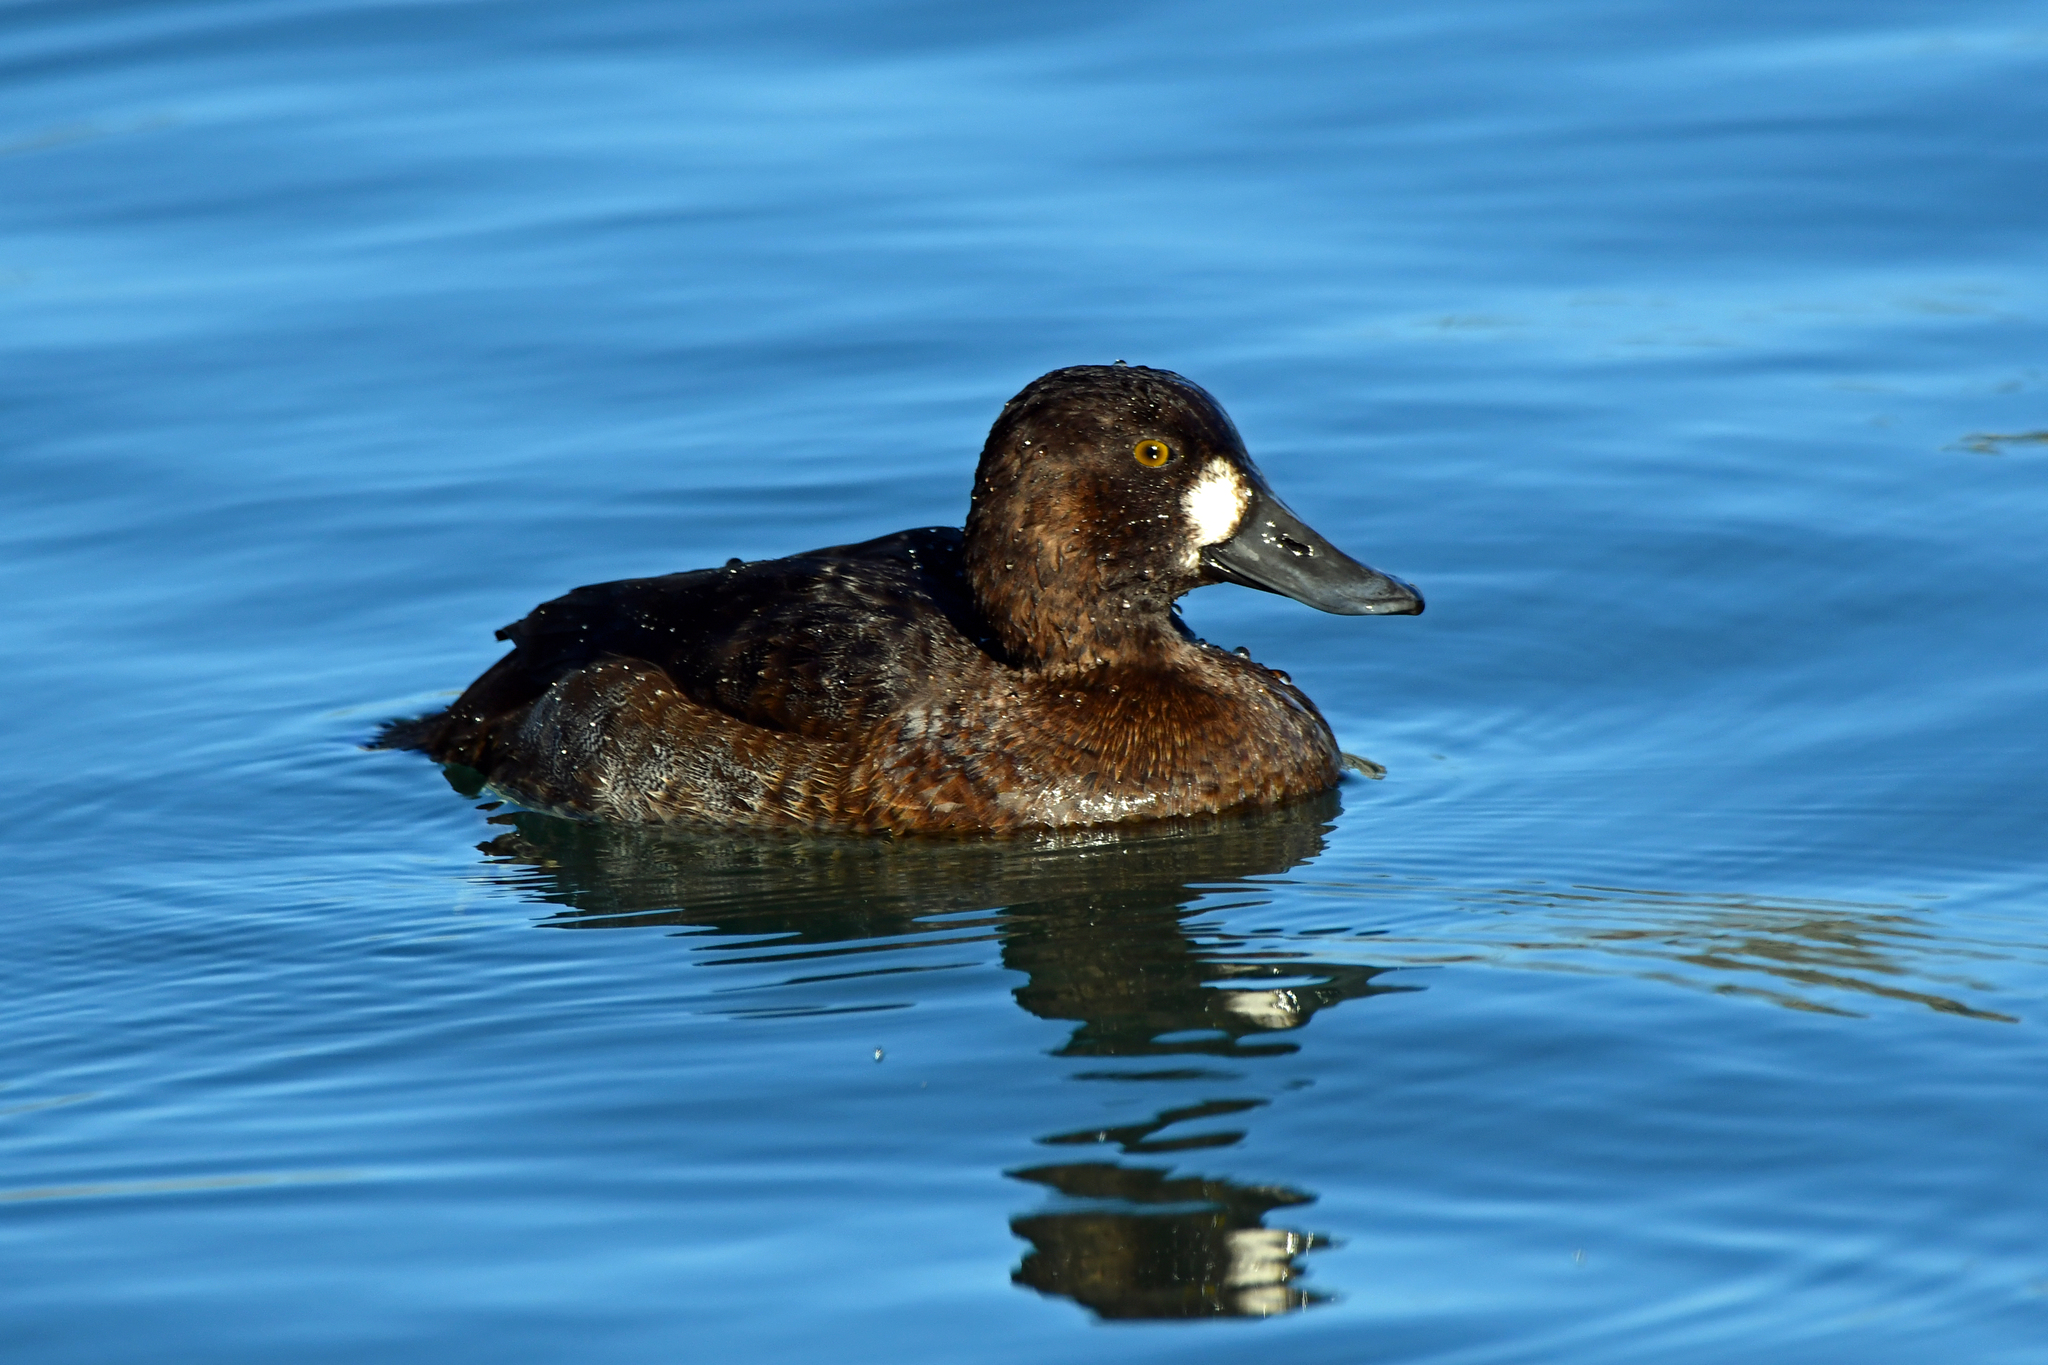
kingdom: Animalia
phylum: Chordata
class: Aves
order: Anseriformes
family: Anatidae
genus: Aythya
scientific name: Aythya marila
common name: Greater scaup
